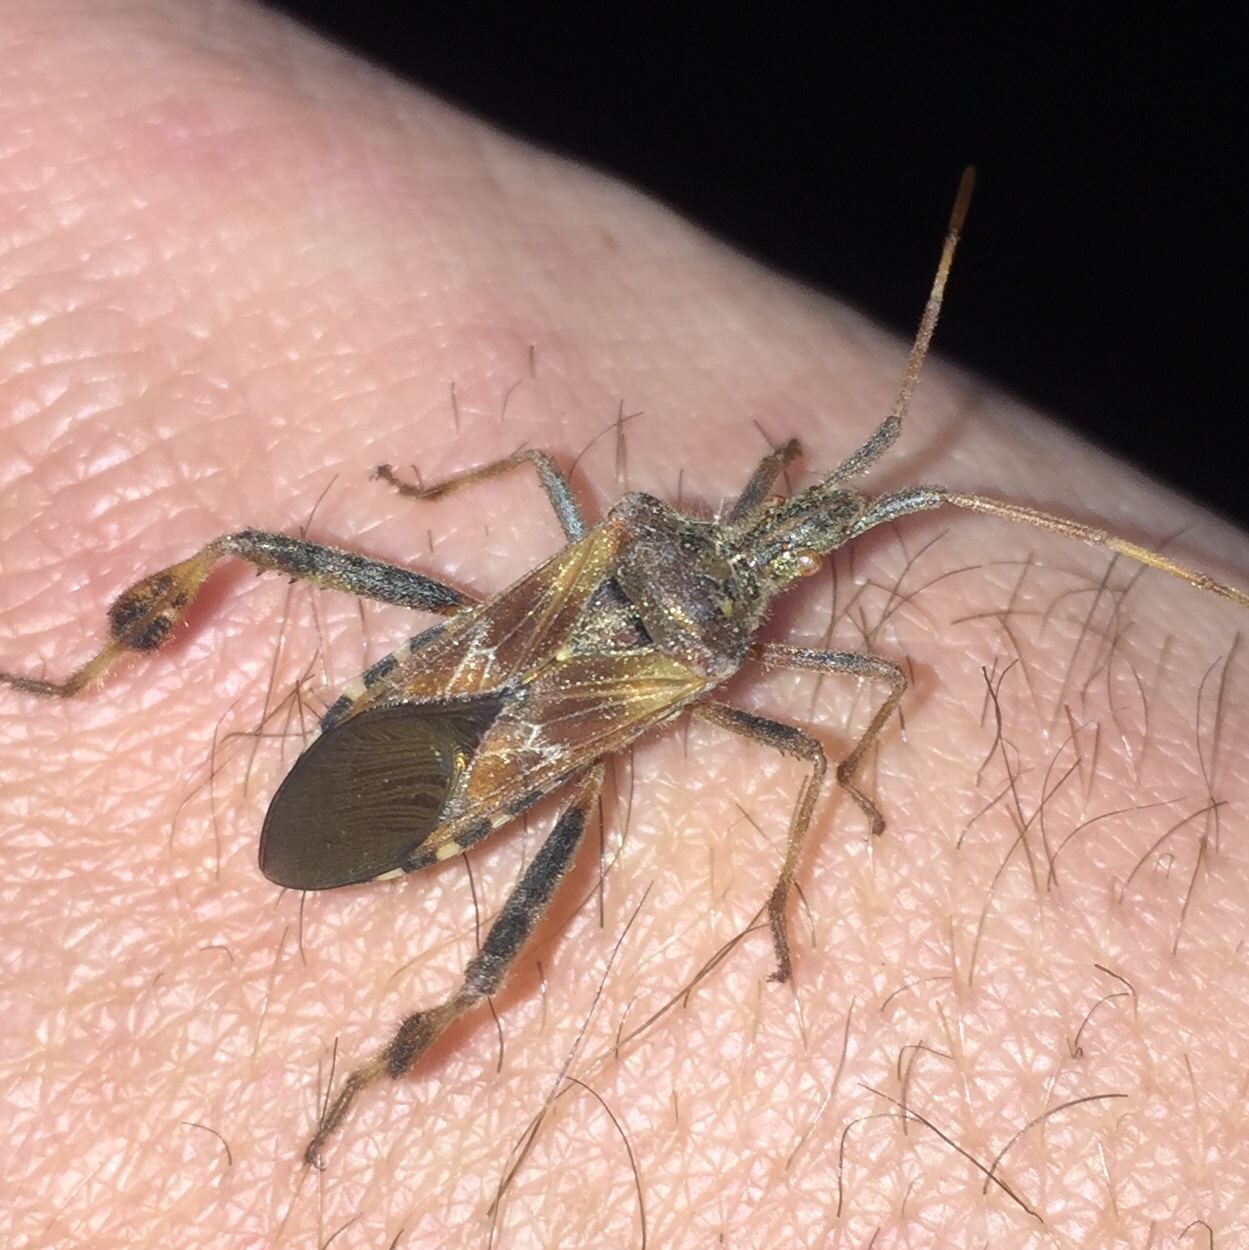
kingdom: Animalia
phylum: Arthropoda
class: Insecta
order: Hemiptera
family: Coreidae
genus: Leptoglossus
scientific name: Leptoglossus occidentalis
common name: Western conifer-seed bug
